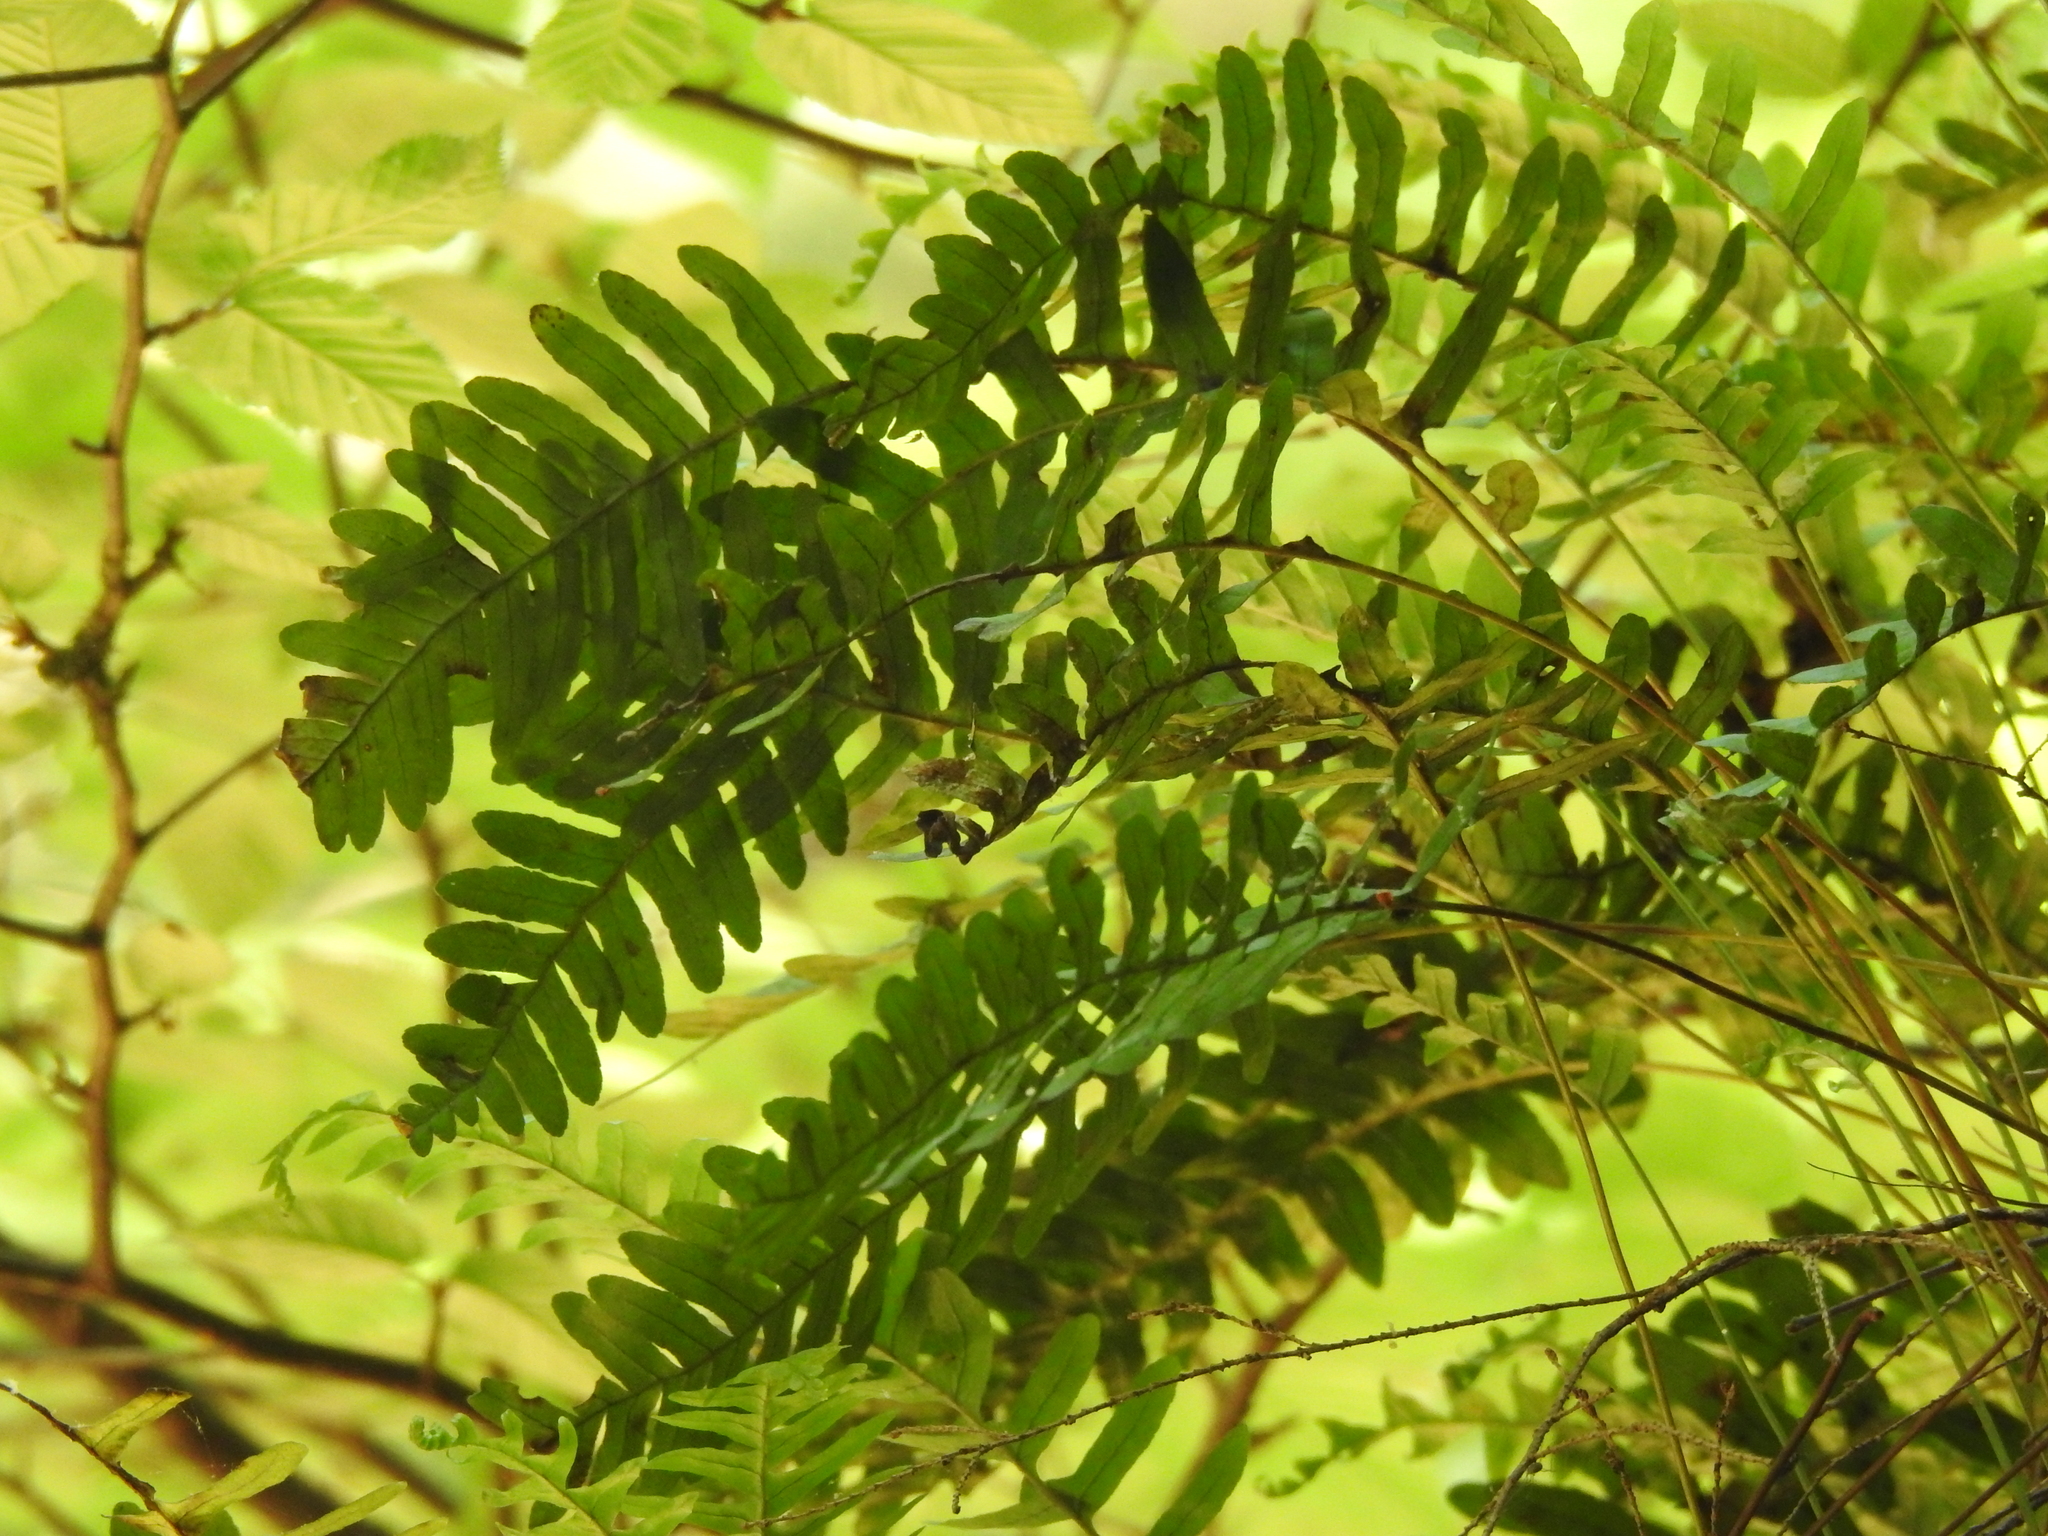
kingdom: Plantae
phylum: Tracheophyta
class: Polypodiopsida
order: Polypodiales
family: Polypodiaceae
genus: Polypodium
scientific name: Polypodium virginianum
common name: American wall fern
